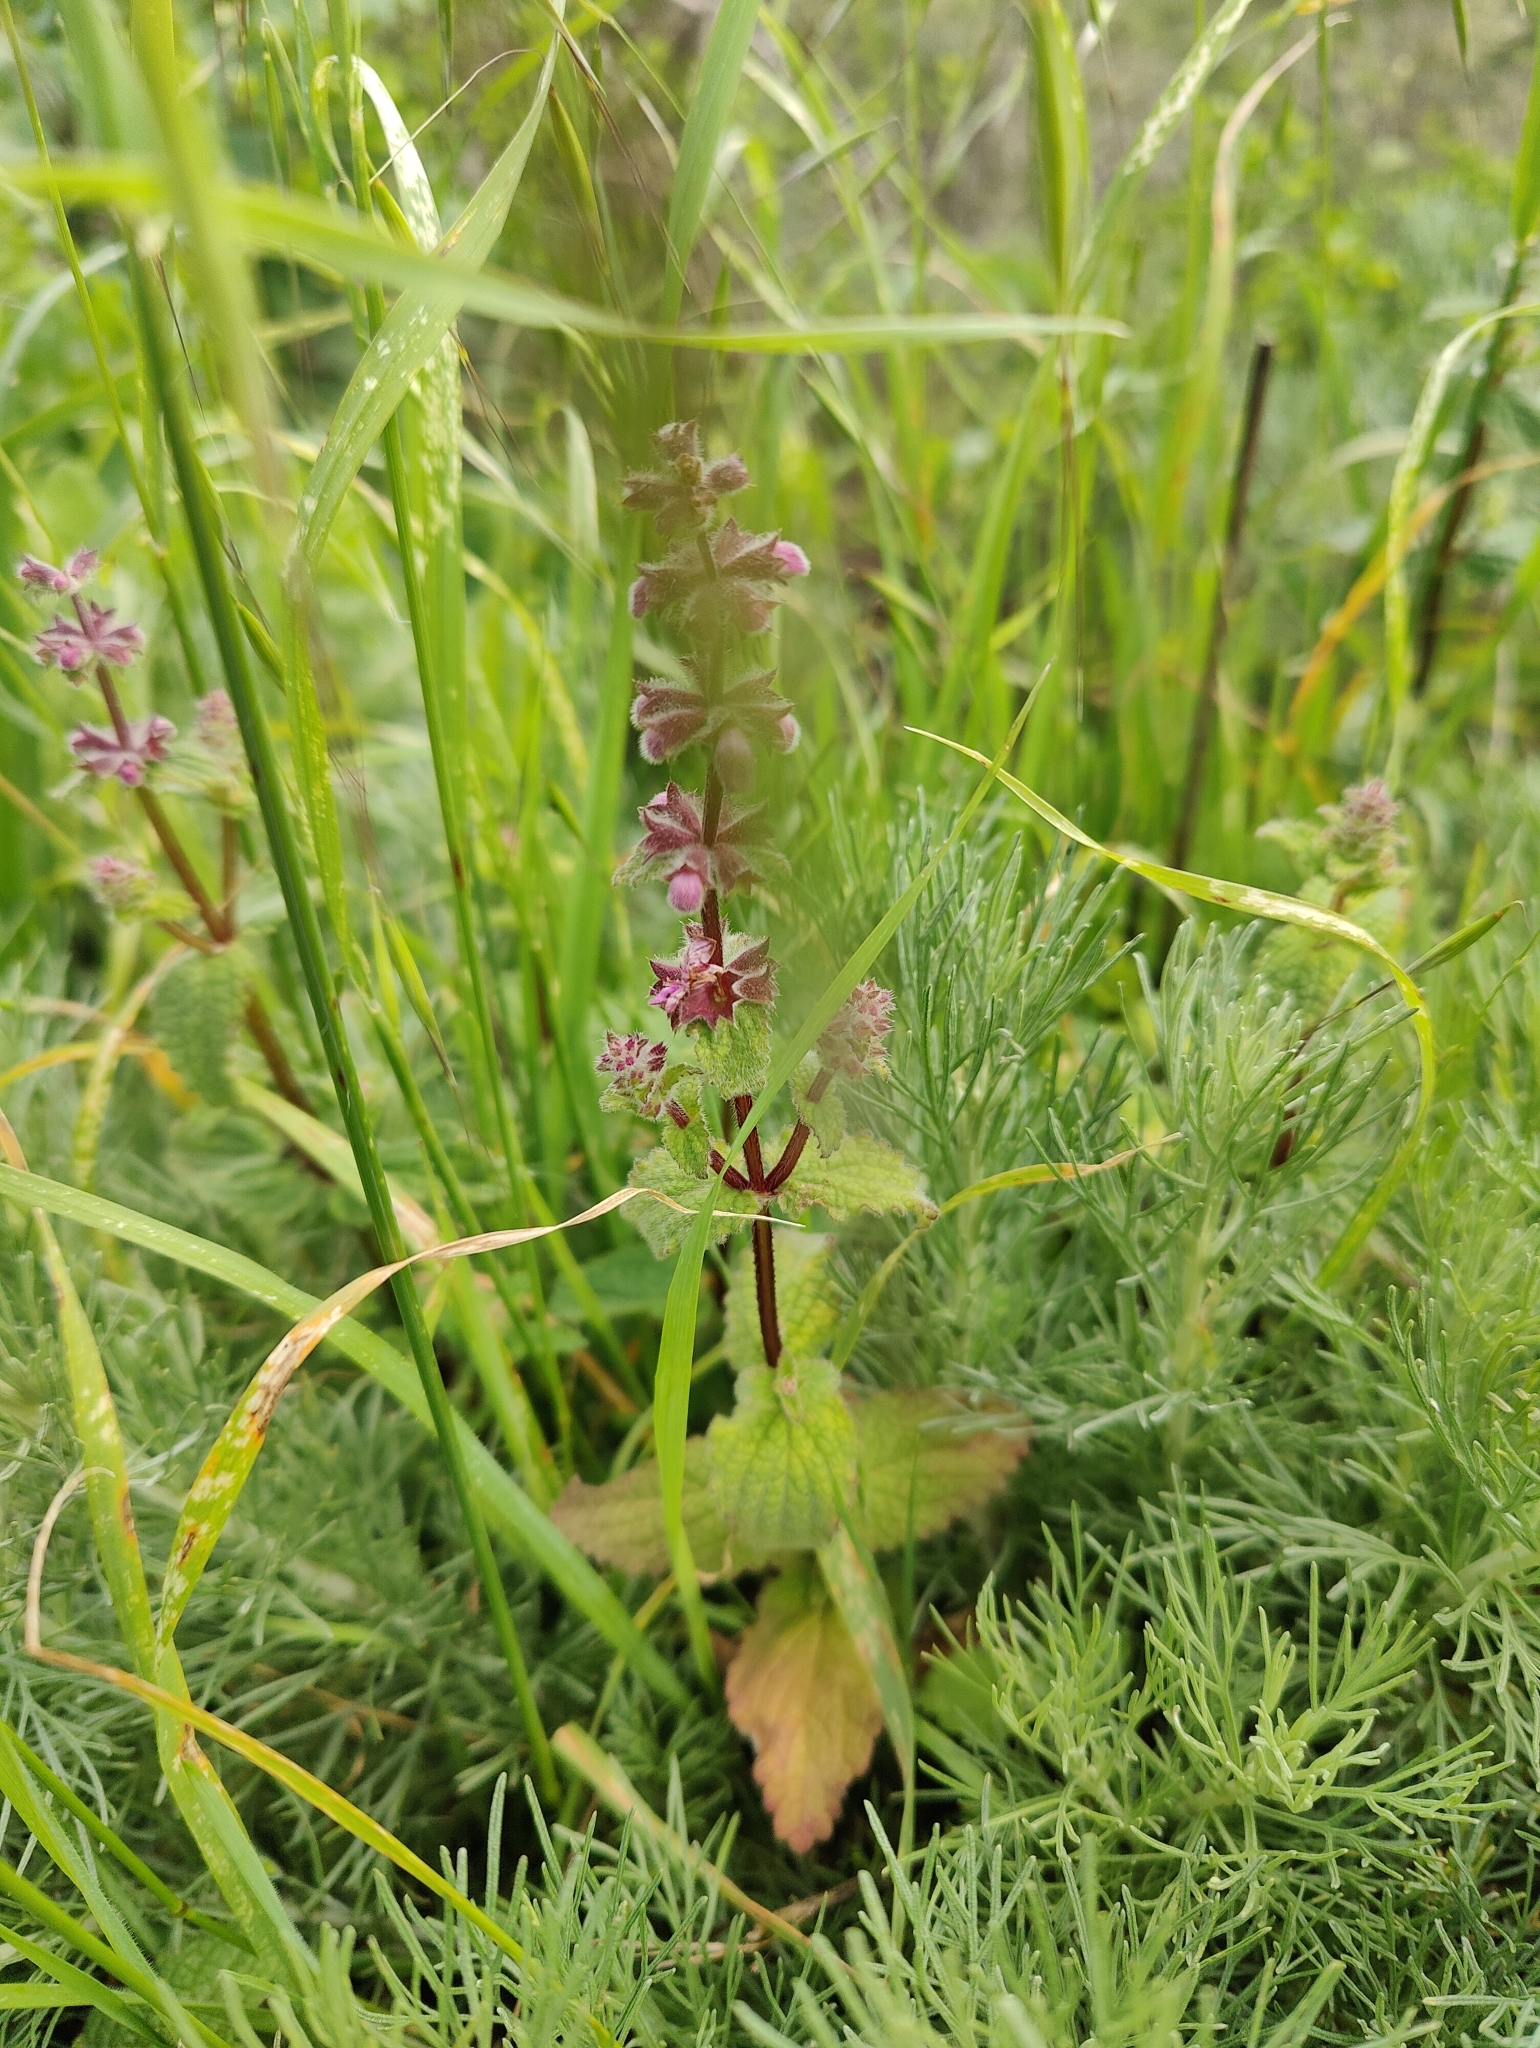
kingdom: Plantae
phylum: Tracheophyta
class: Magnoliopsida
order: Lamiales
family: Lamiaceae
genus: Stachys
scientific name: Stachys bullata
